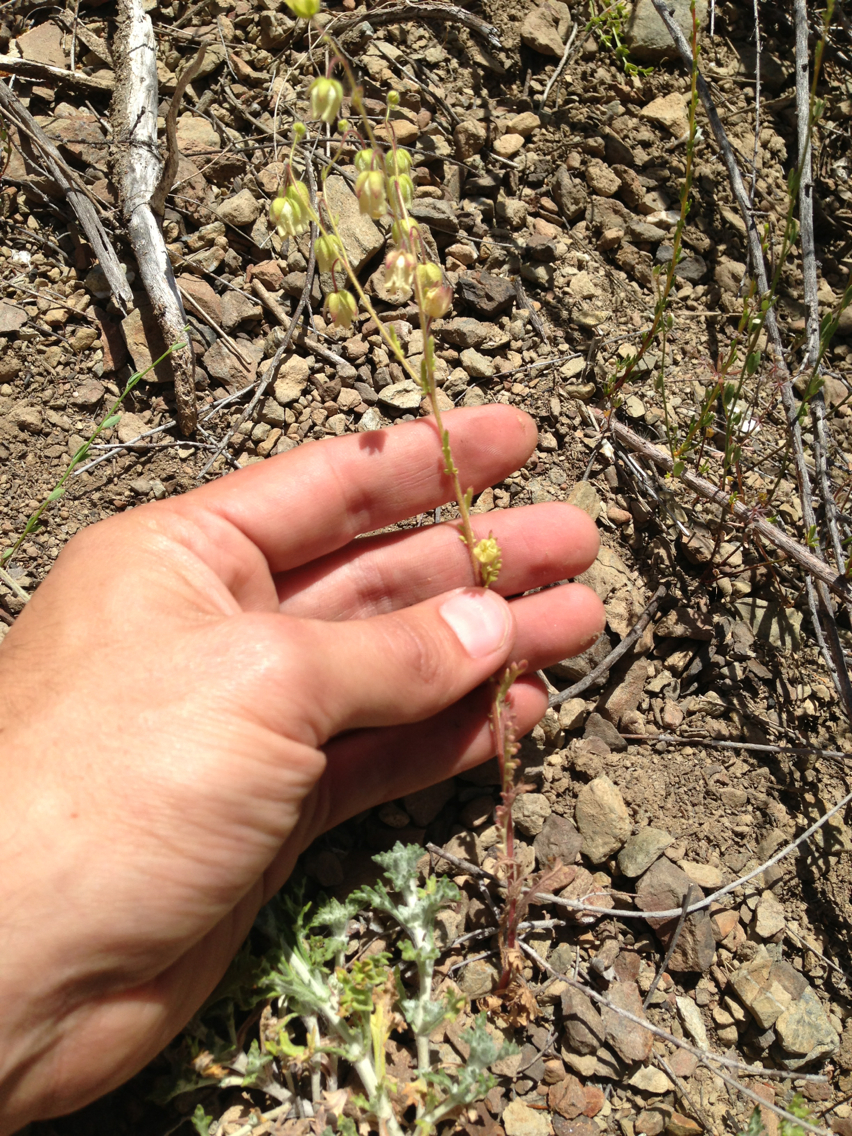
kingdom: Plantae
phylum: Tracheophyta
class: Magnoliopsida
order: Boraginales
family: Hydrophyllaceae
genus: Emmenanthe
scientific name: Emmenanthe penduliflora
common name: Whispering-bells
